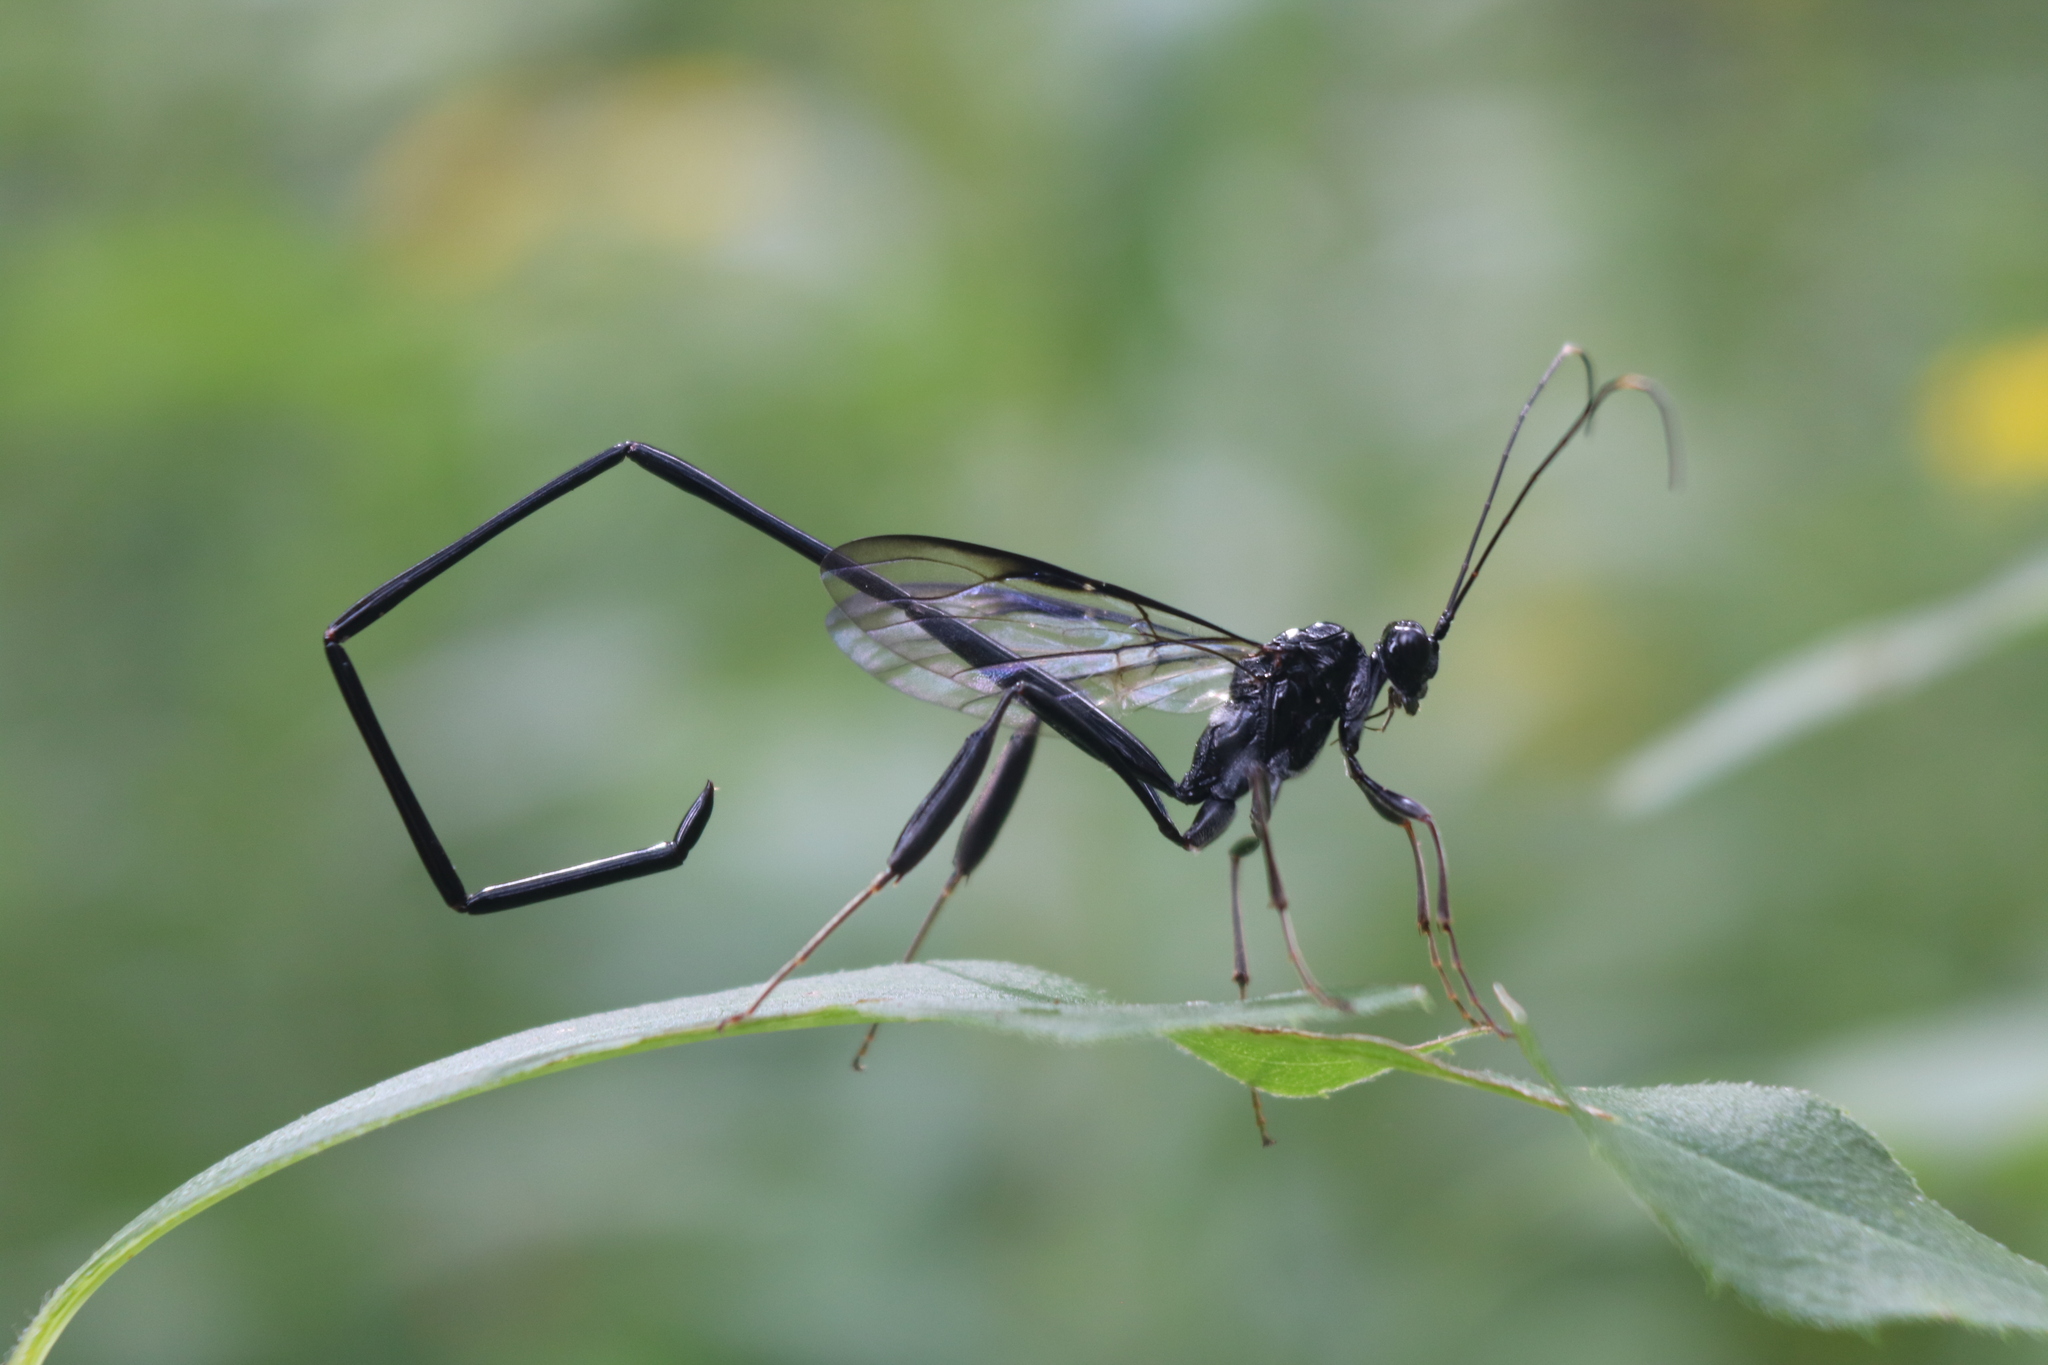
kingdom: Animalia
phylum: Arthropoda
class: Insecta
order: Hymenoptera
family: Pelecinidae
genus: Pelecinus
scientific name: Pelecinus polyturator
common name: American pelecinid wasp
